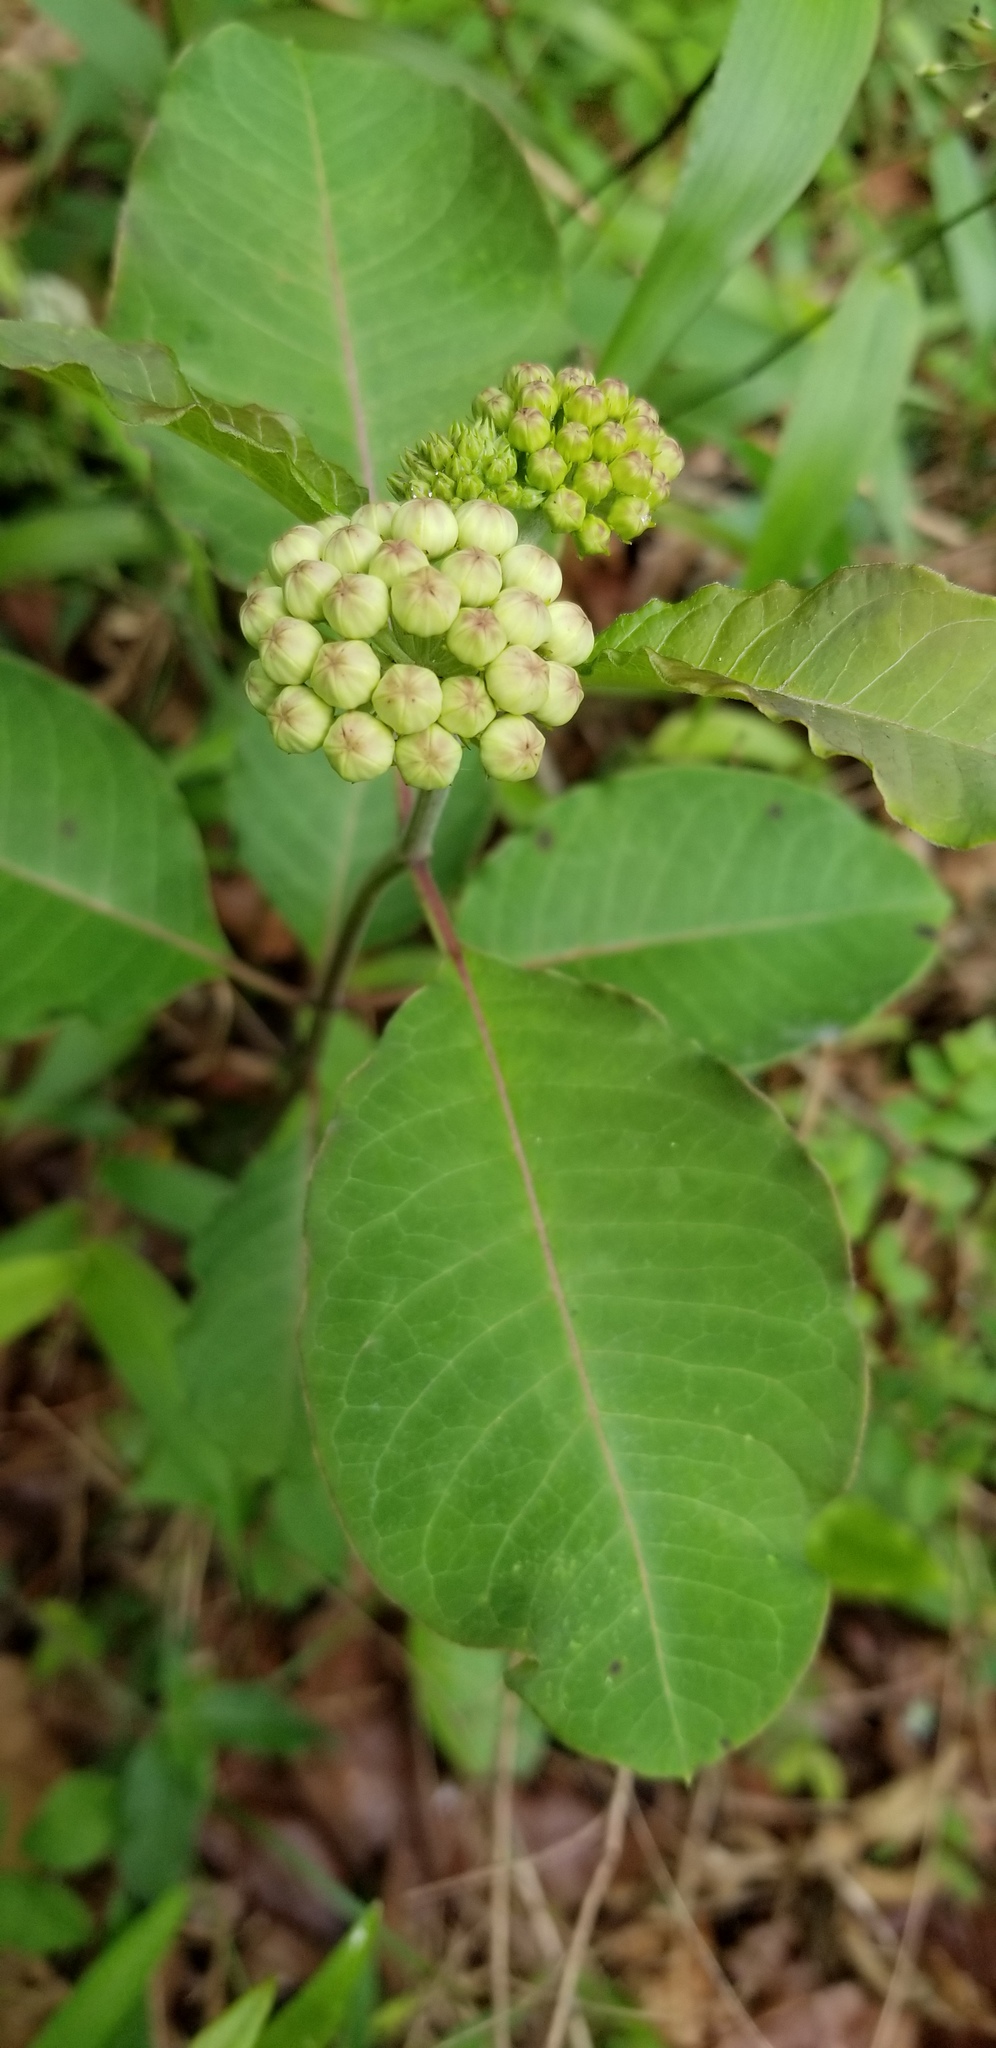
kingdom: Plantae
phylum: Tracheophyta
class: Magnoliopsida
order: Gentianales
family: Apocynaceae
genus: Asclepias
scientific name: Asclepias variegata
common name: Variegated milkweed
